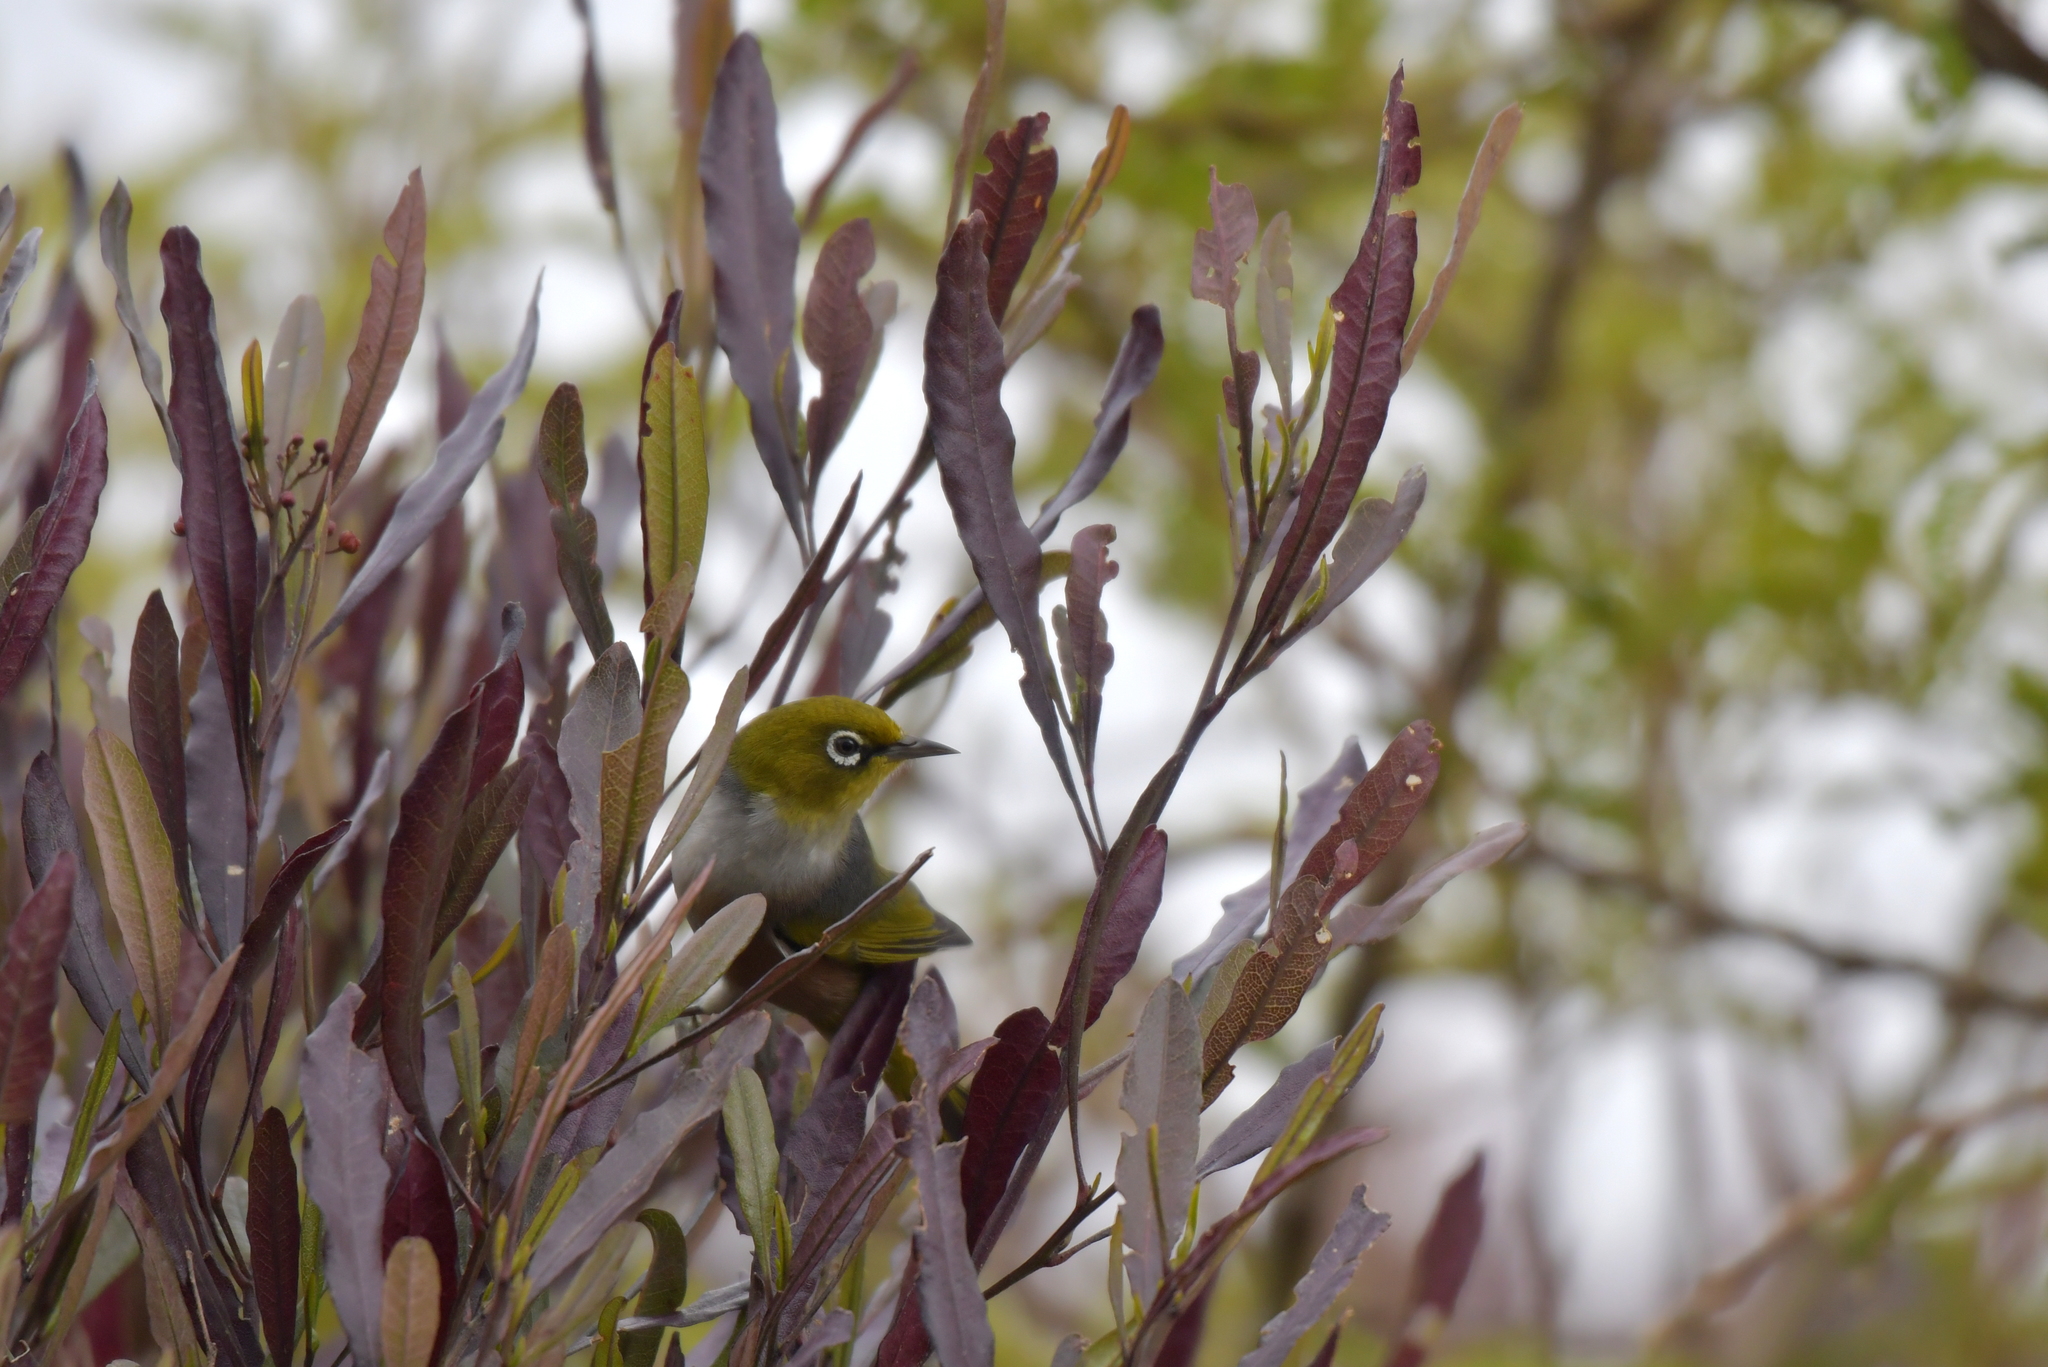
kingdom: Animalia
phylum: Chordata
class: Aves
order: Passeriformes
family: Zosteropidae
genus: Zosterops
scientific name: Zosterops lateralis
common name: Silvereye
